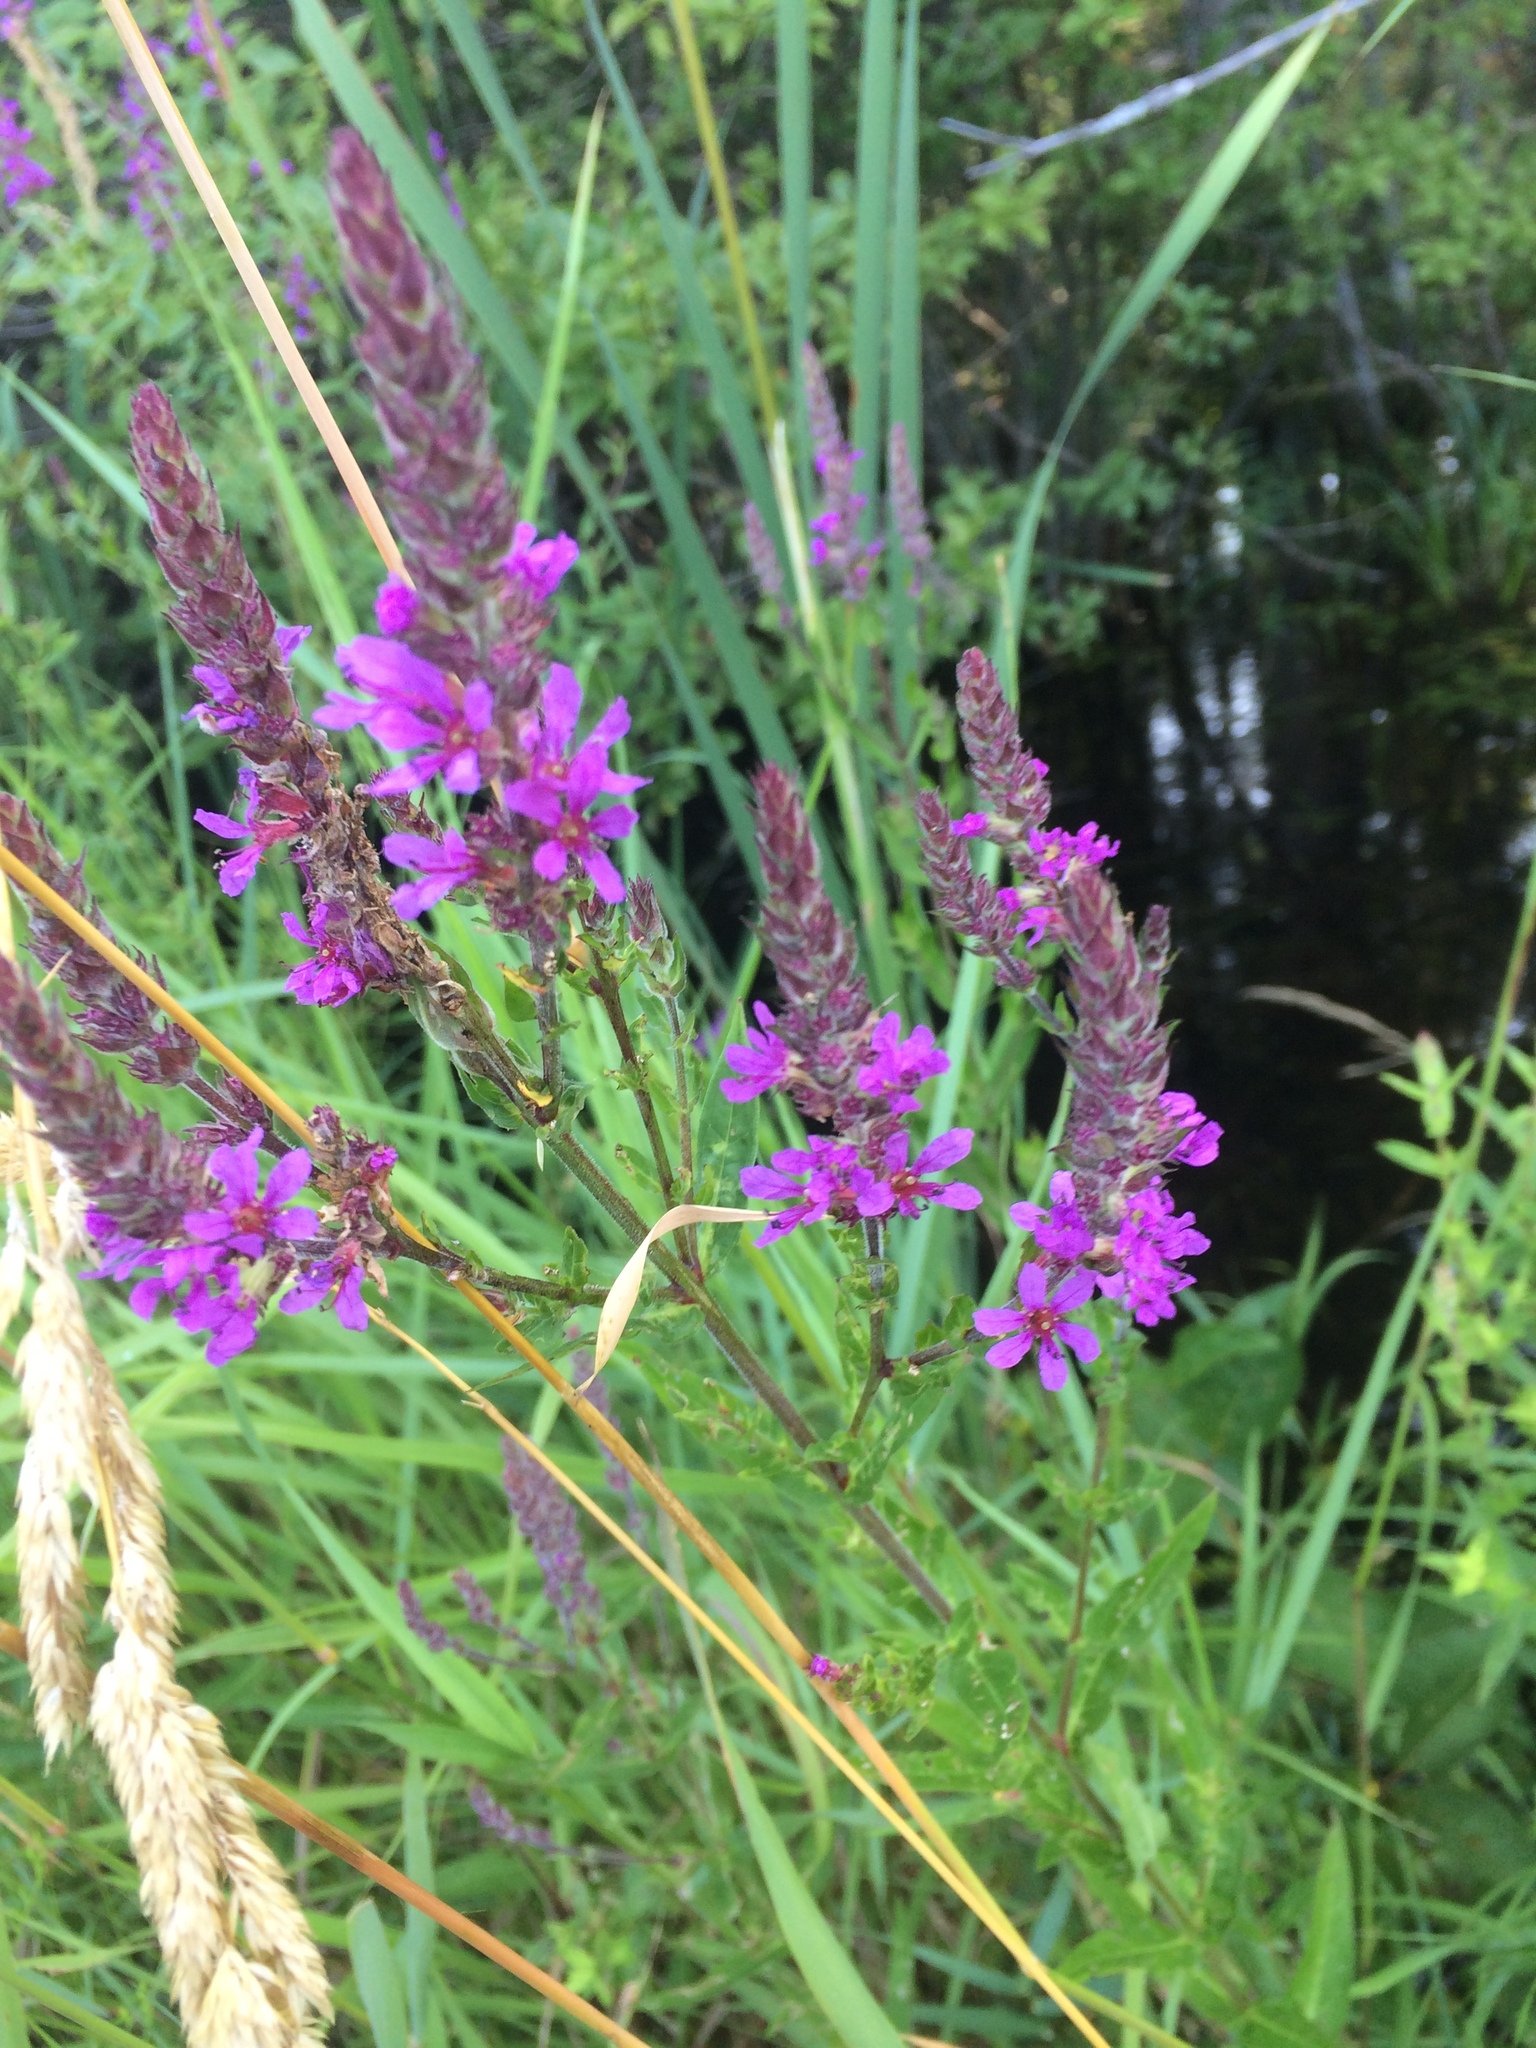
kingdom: Plantae
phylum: Tracheophyta
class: Magnoliopsida
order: Myrtales
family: Lythraceae
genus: Lythrum
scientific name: Lythrum salicaria
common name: Purple loosestrife
